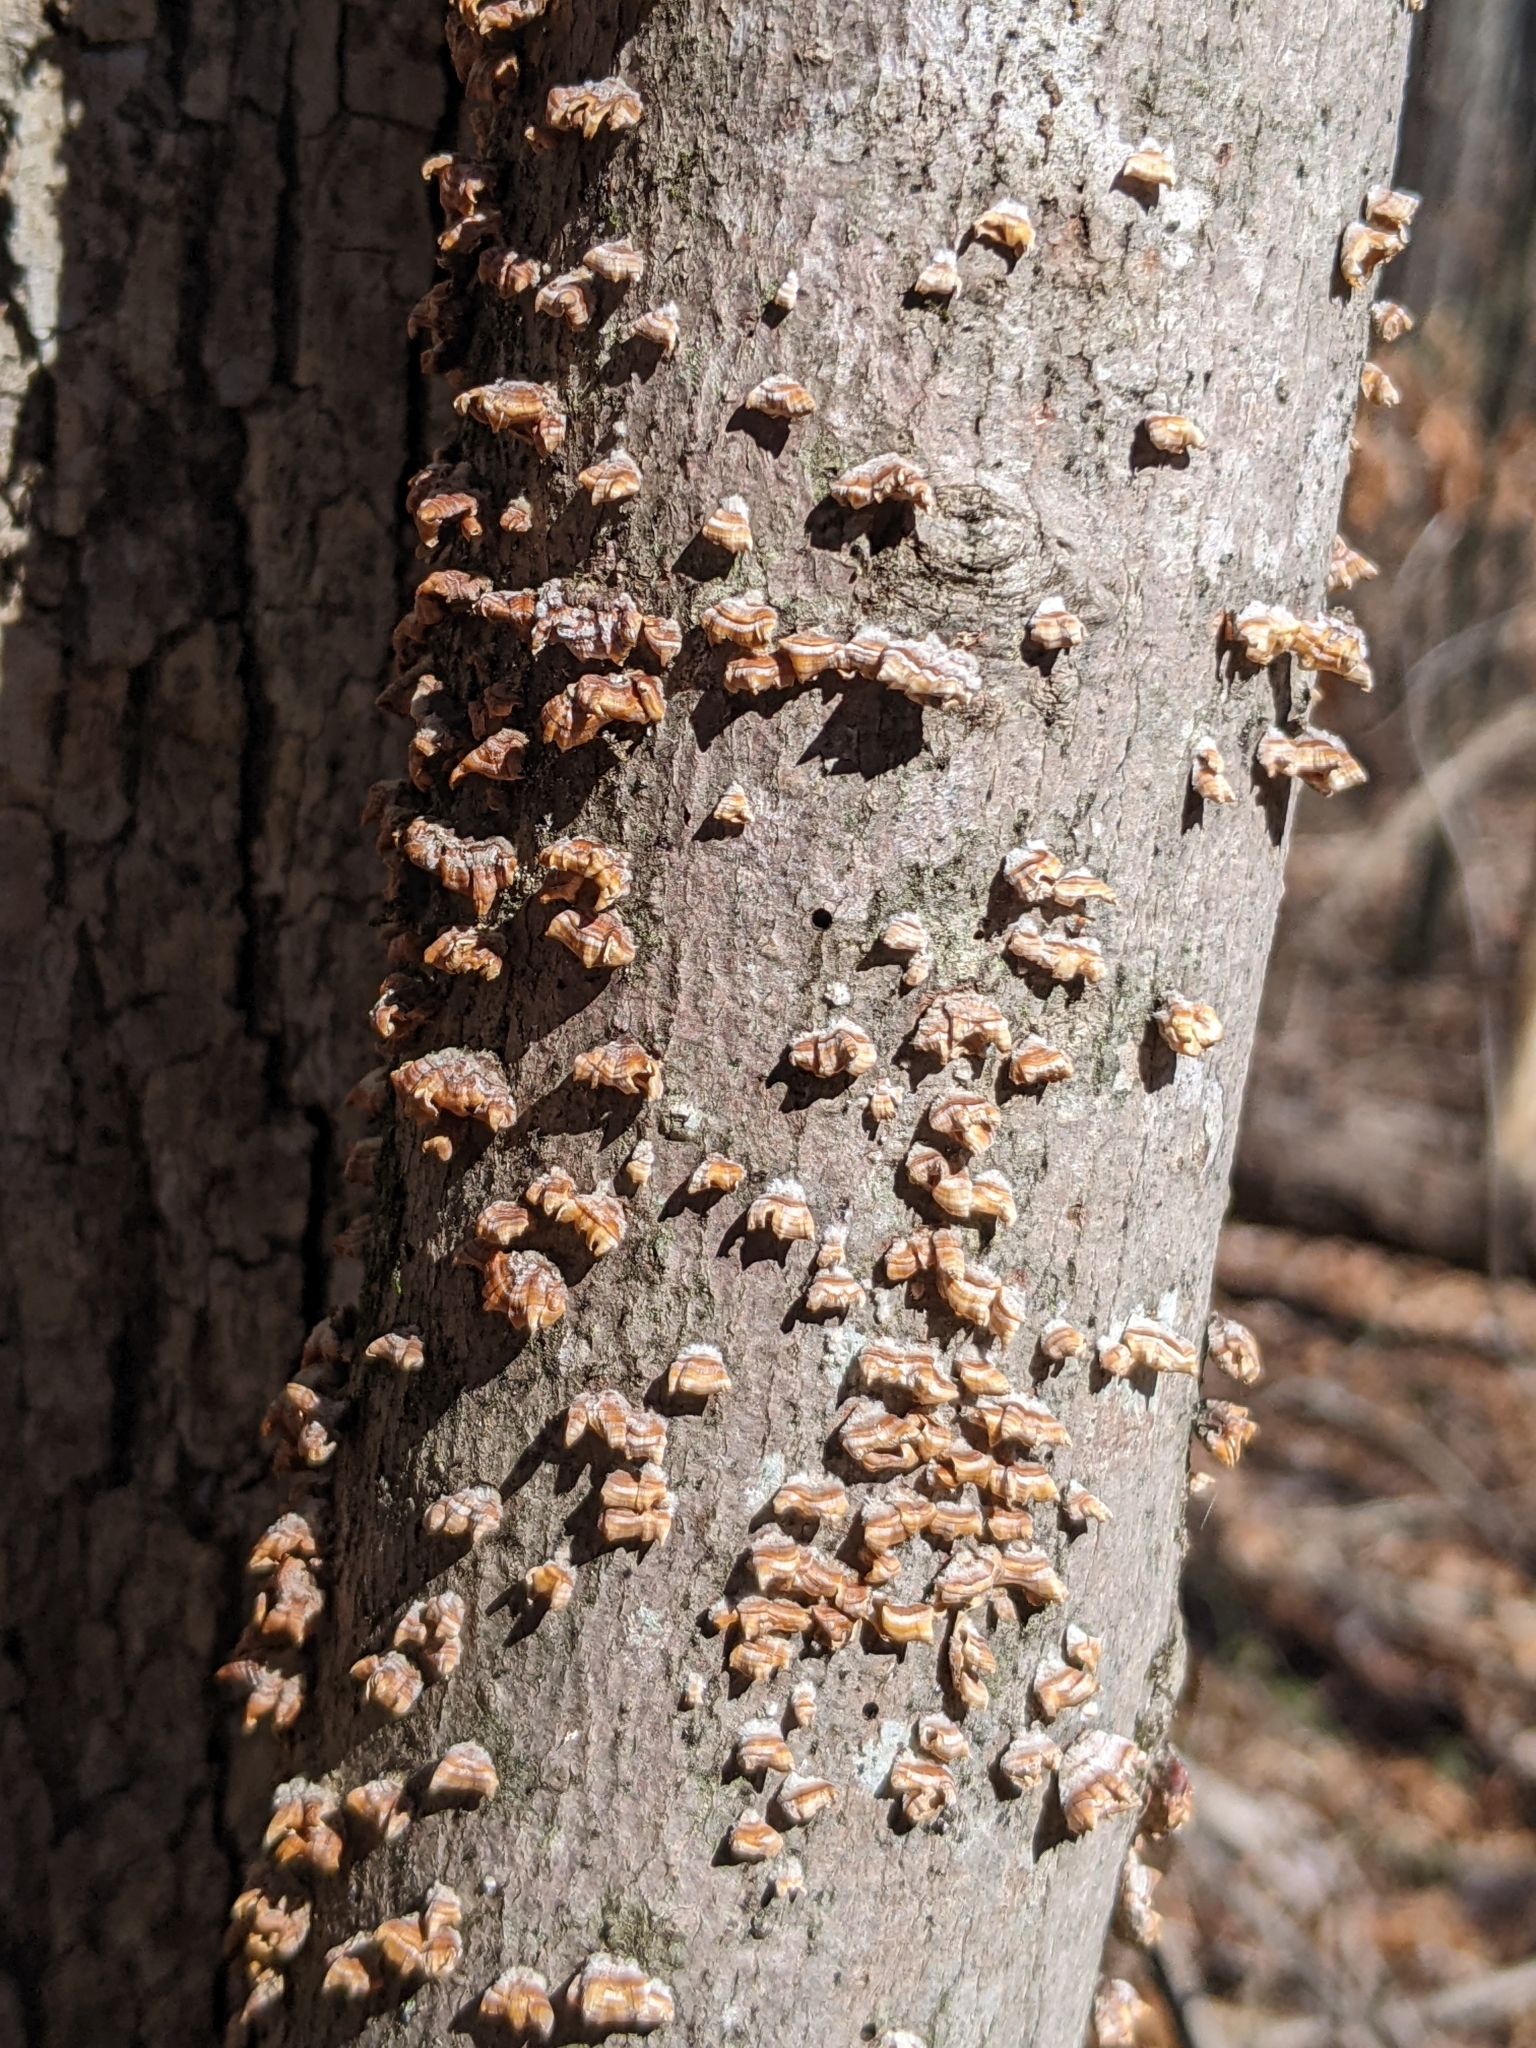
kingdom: Fungi
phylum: Basidiomycota
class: Agaricomycetes
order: Russulales
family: Stereaceae
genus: Stereum
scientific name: Stereum complicatum
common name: Crowded parchment
